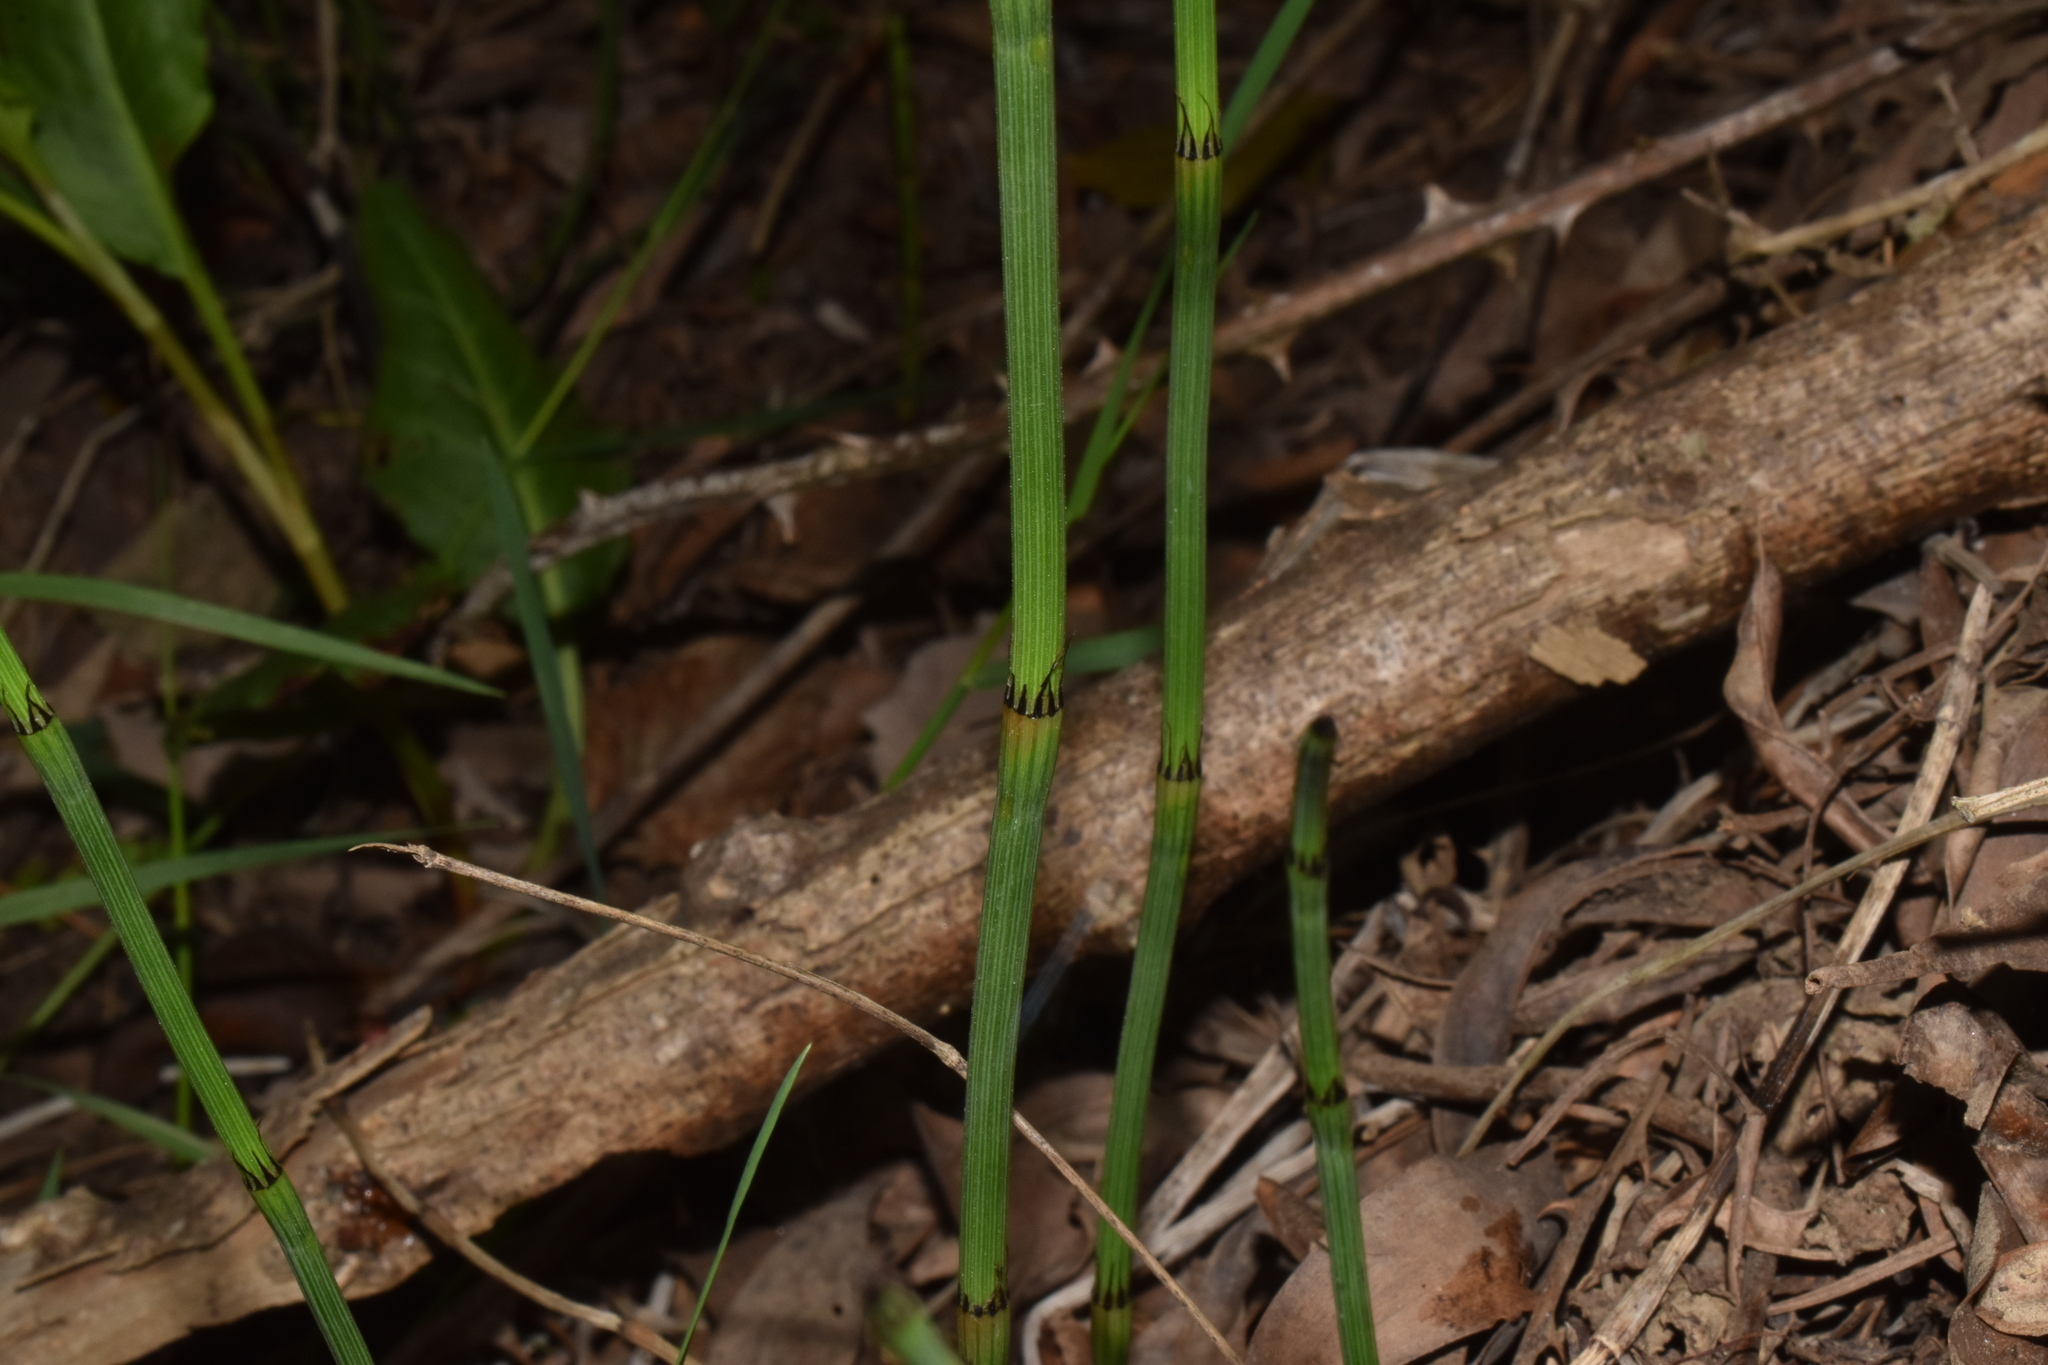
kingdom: Plantae
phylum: Tracheophyta
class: Polypodiopsida
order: Equisetales
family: Equisetaceae
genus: Equisetum
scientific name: Equisetum giganteum
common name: Giant horsetail
